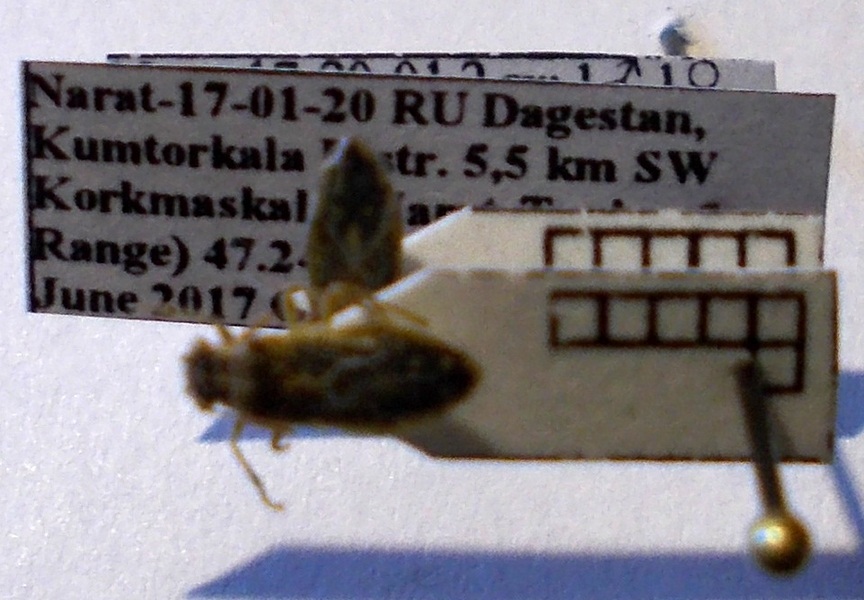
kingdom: Animalia
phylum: Arthropoda
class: Insecta
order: Hemiptera
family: Rhopalidae
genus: Brachycarenus
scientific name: Brachycarenus tigrinus
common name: Scentless plant bug
